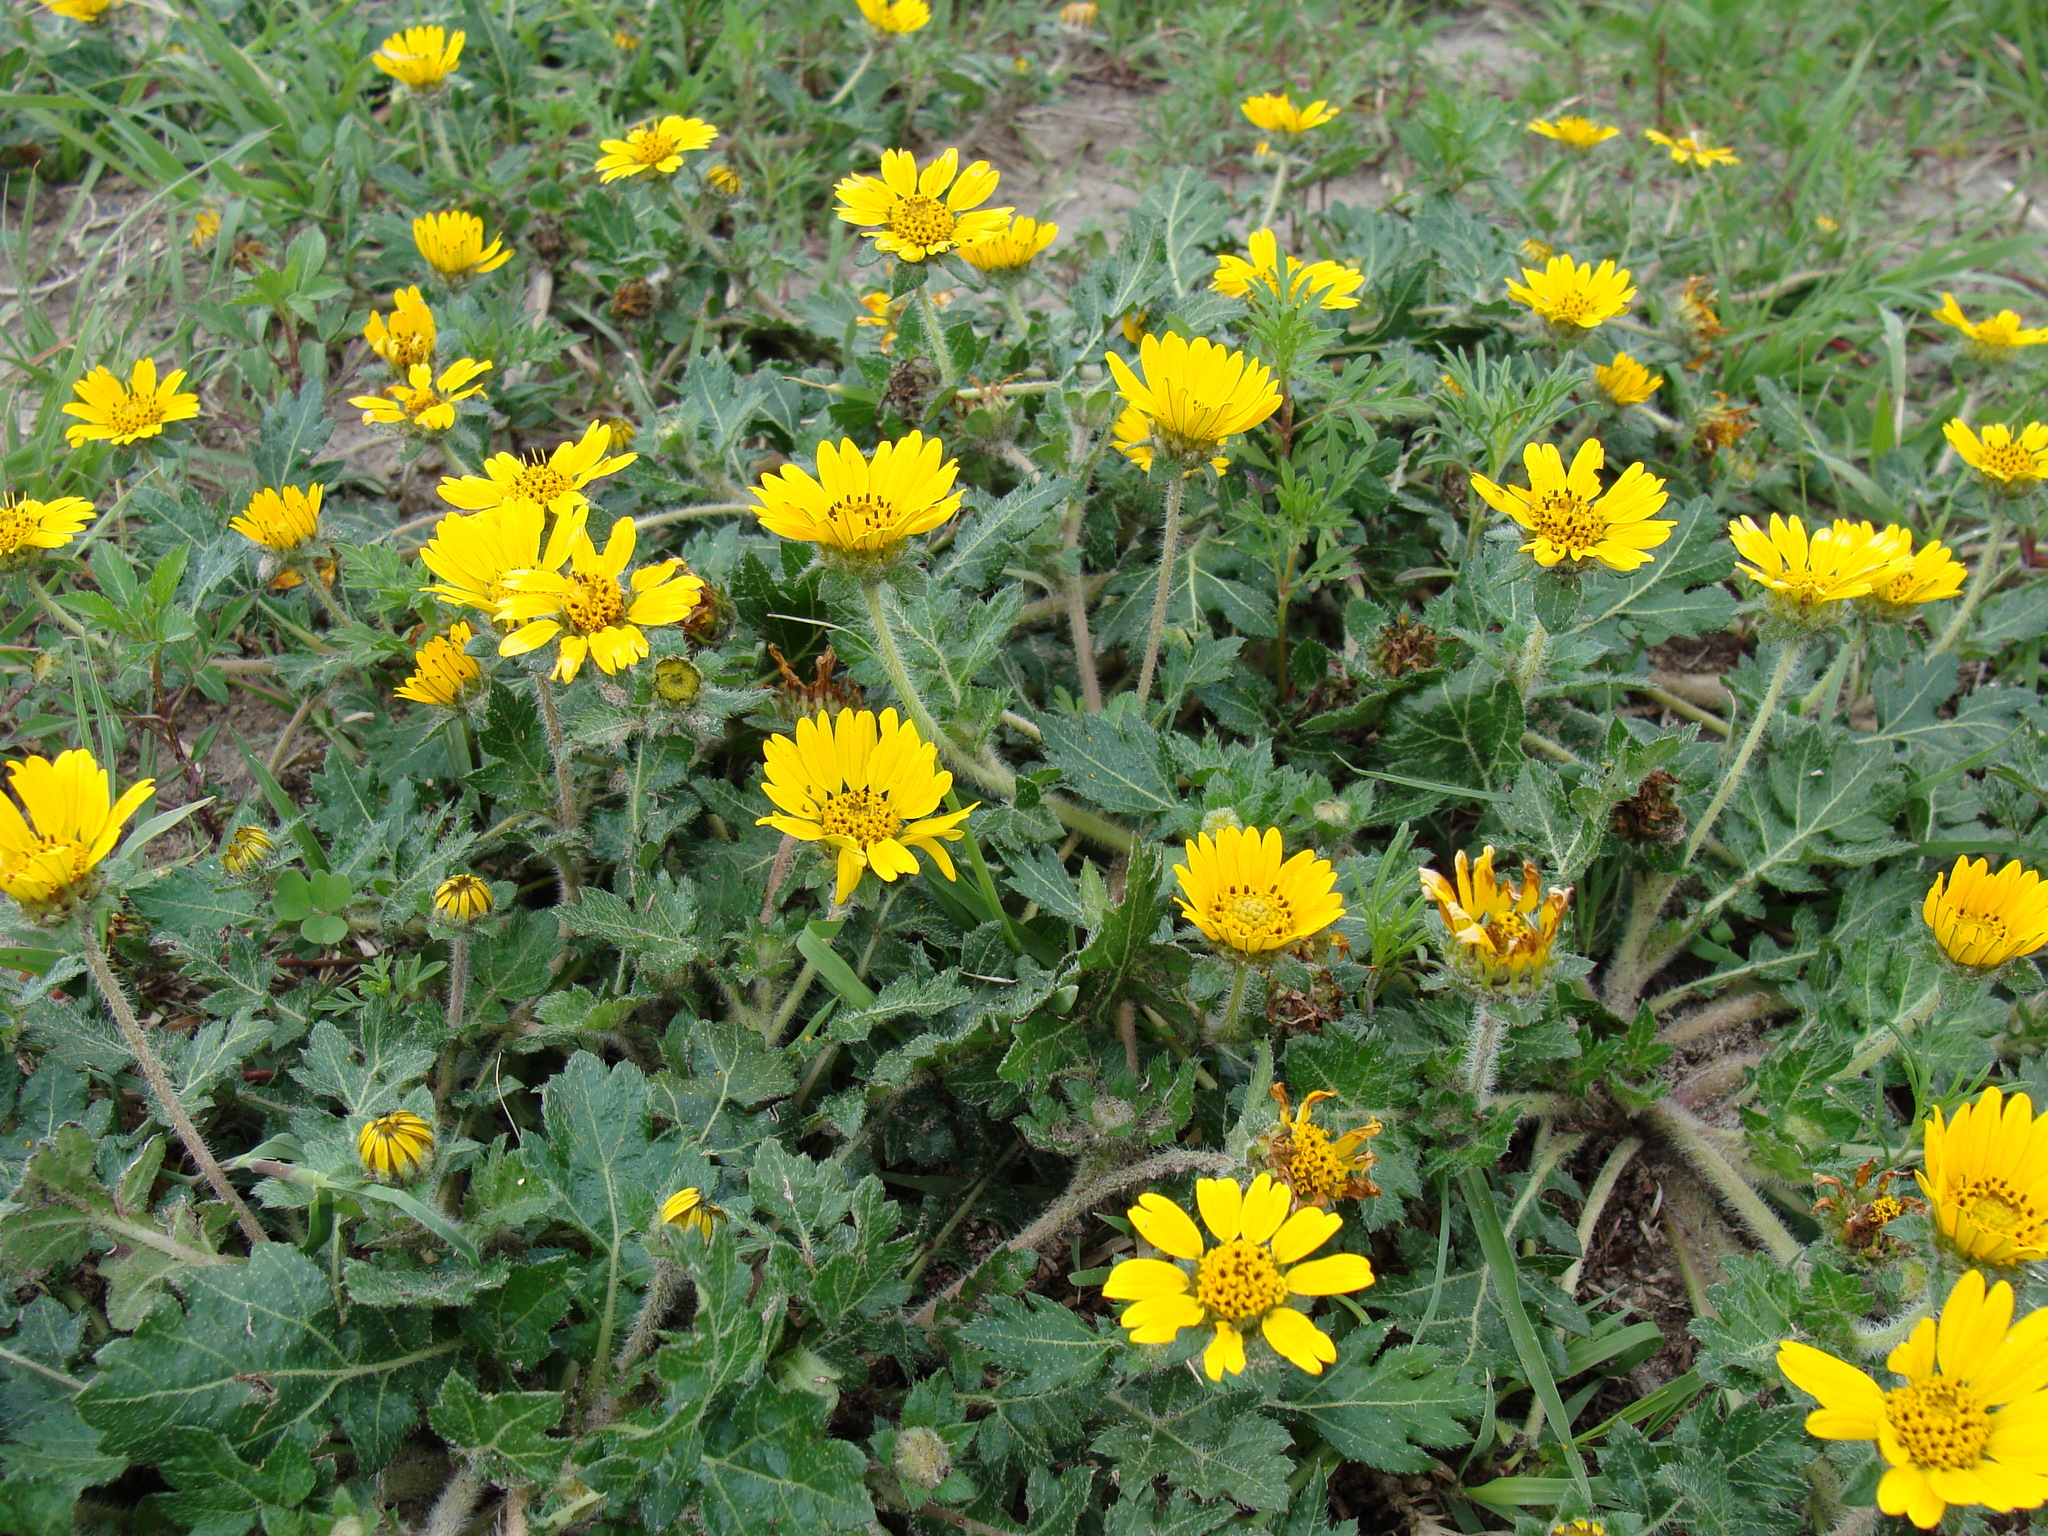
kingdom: Plantae
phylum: Tracheophyta
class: Magnoliopsida
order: Asterales
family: Asteraceae
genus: Dugesia
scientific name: Dugesia mexicana
